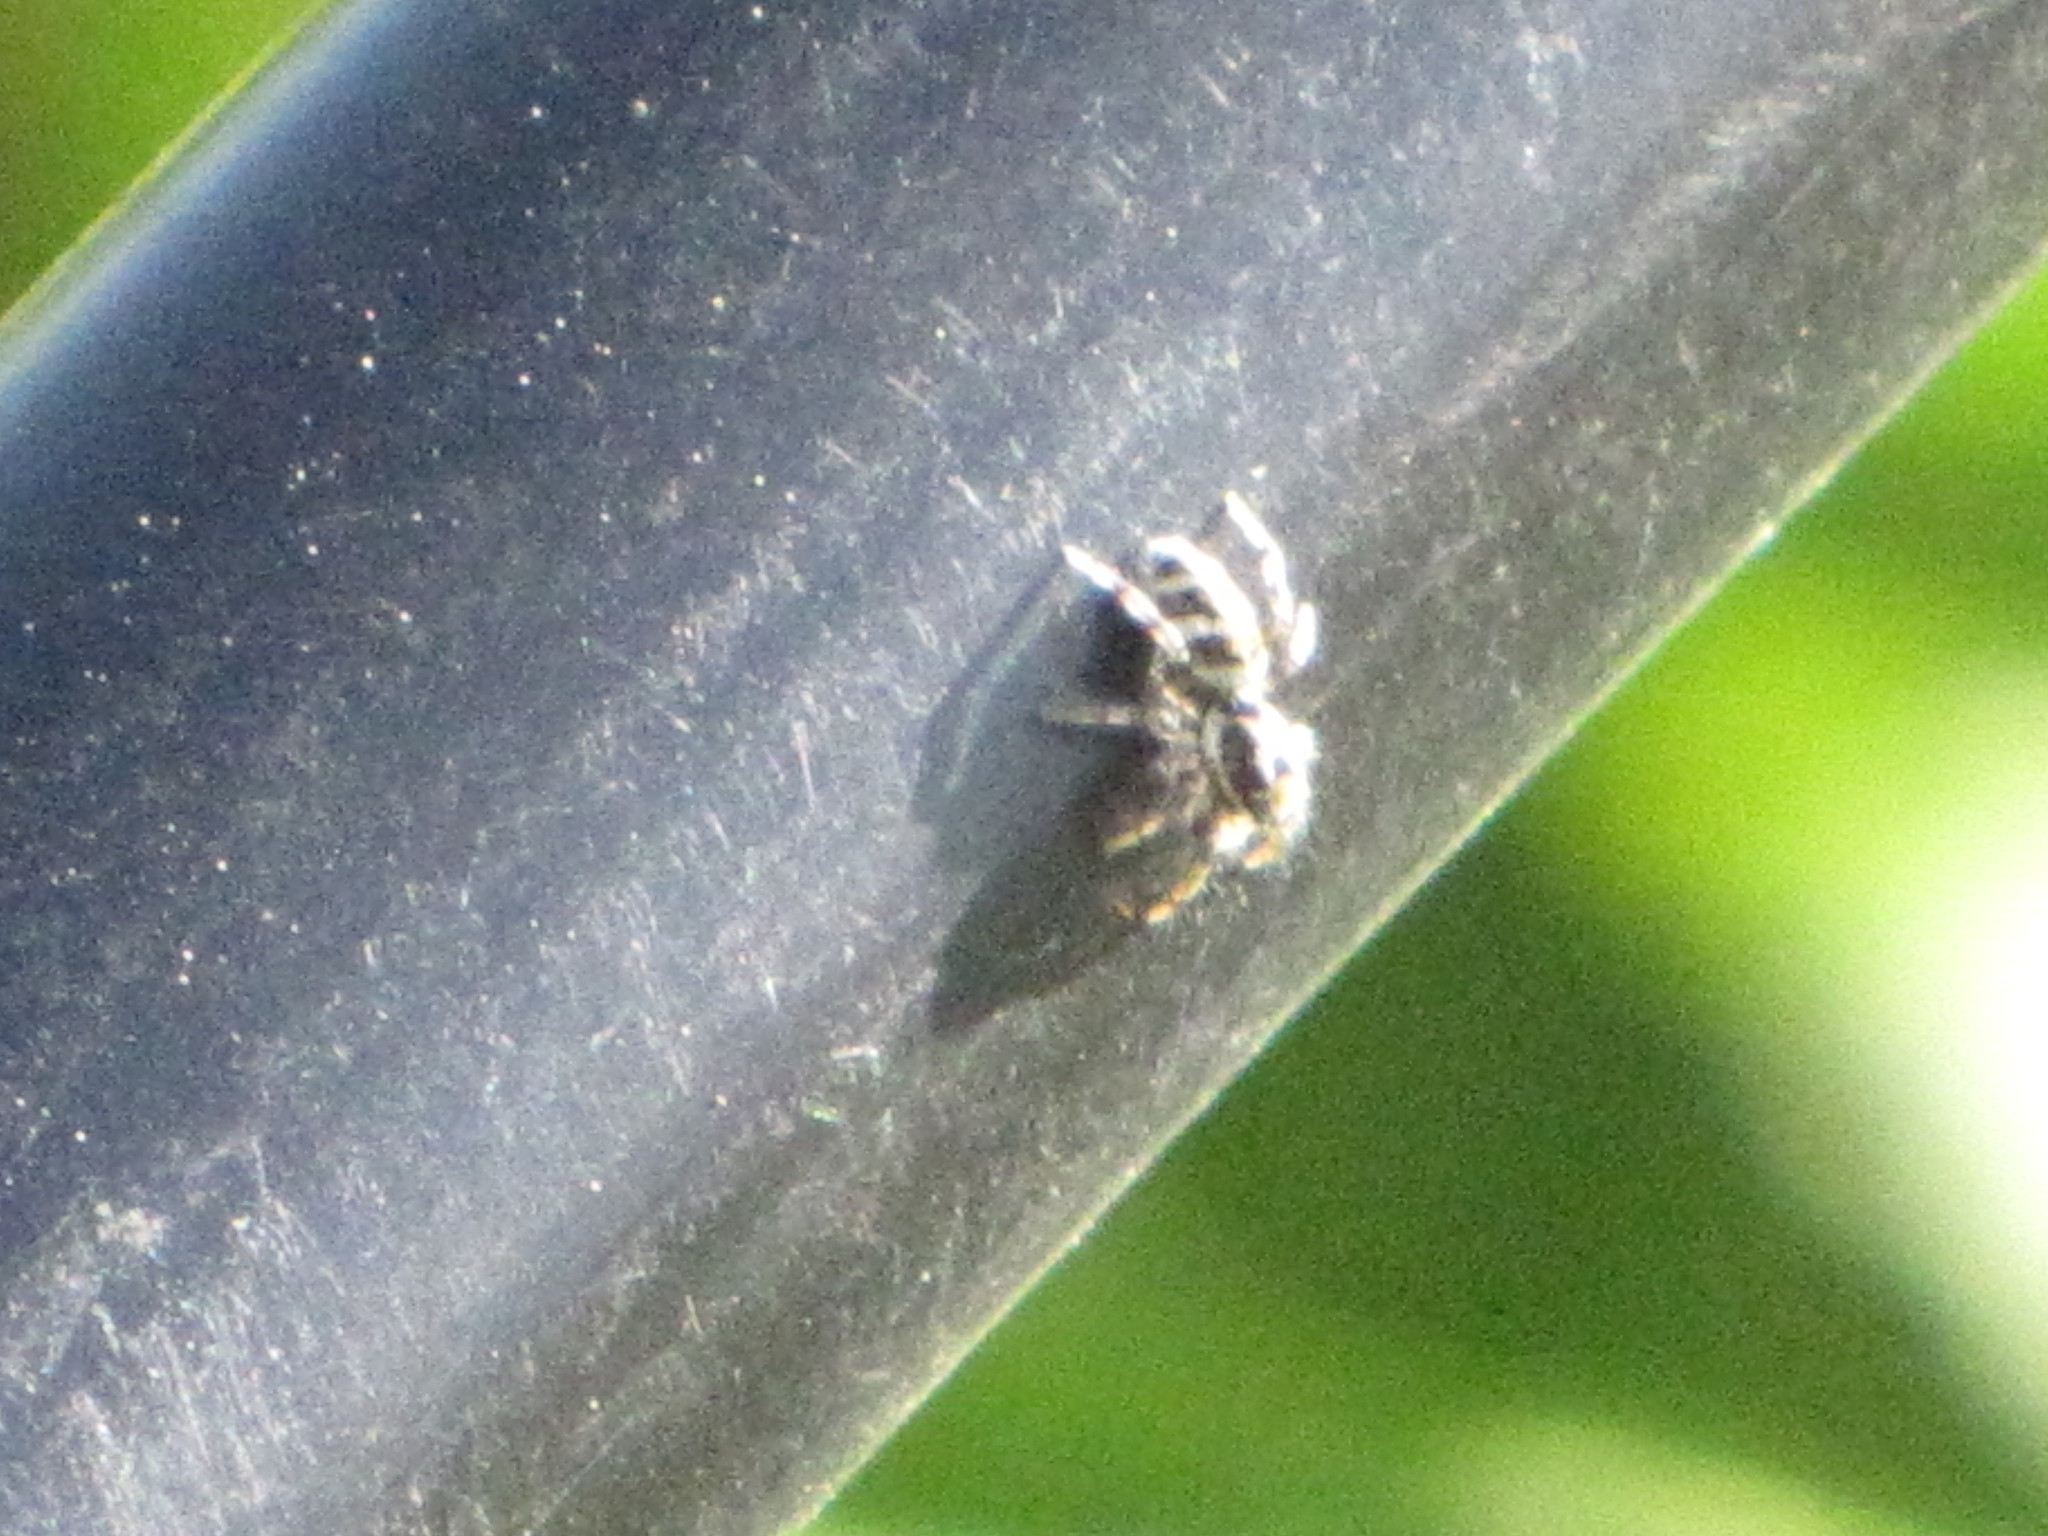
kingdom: Animalia
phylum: Arthropoda
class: Arachnida
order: Araneae
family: Salticidae
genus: Salticus
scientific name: Salticus scenicus
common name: Zebra jumper
